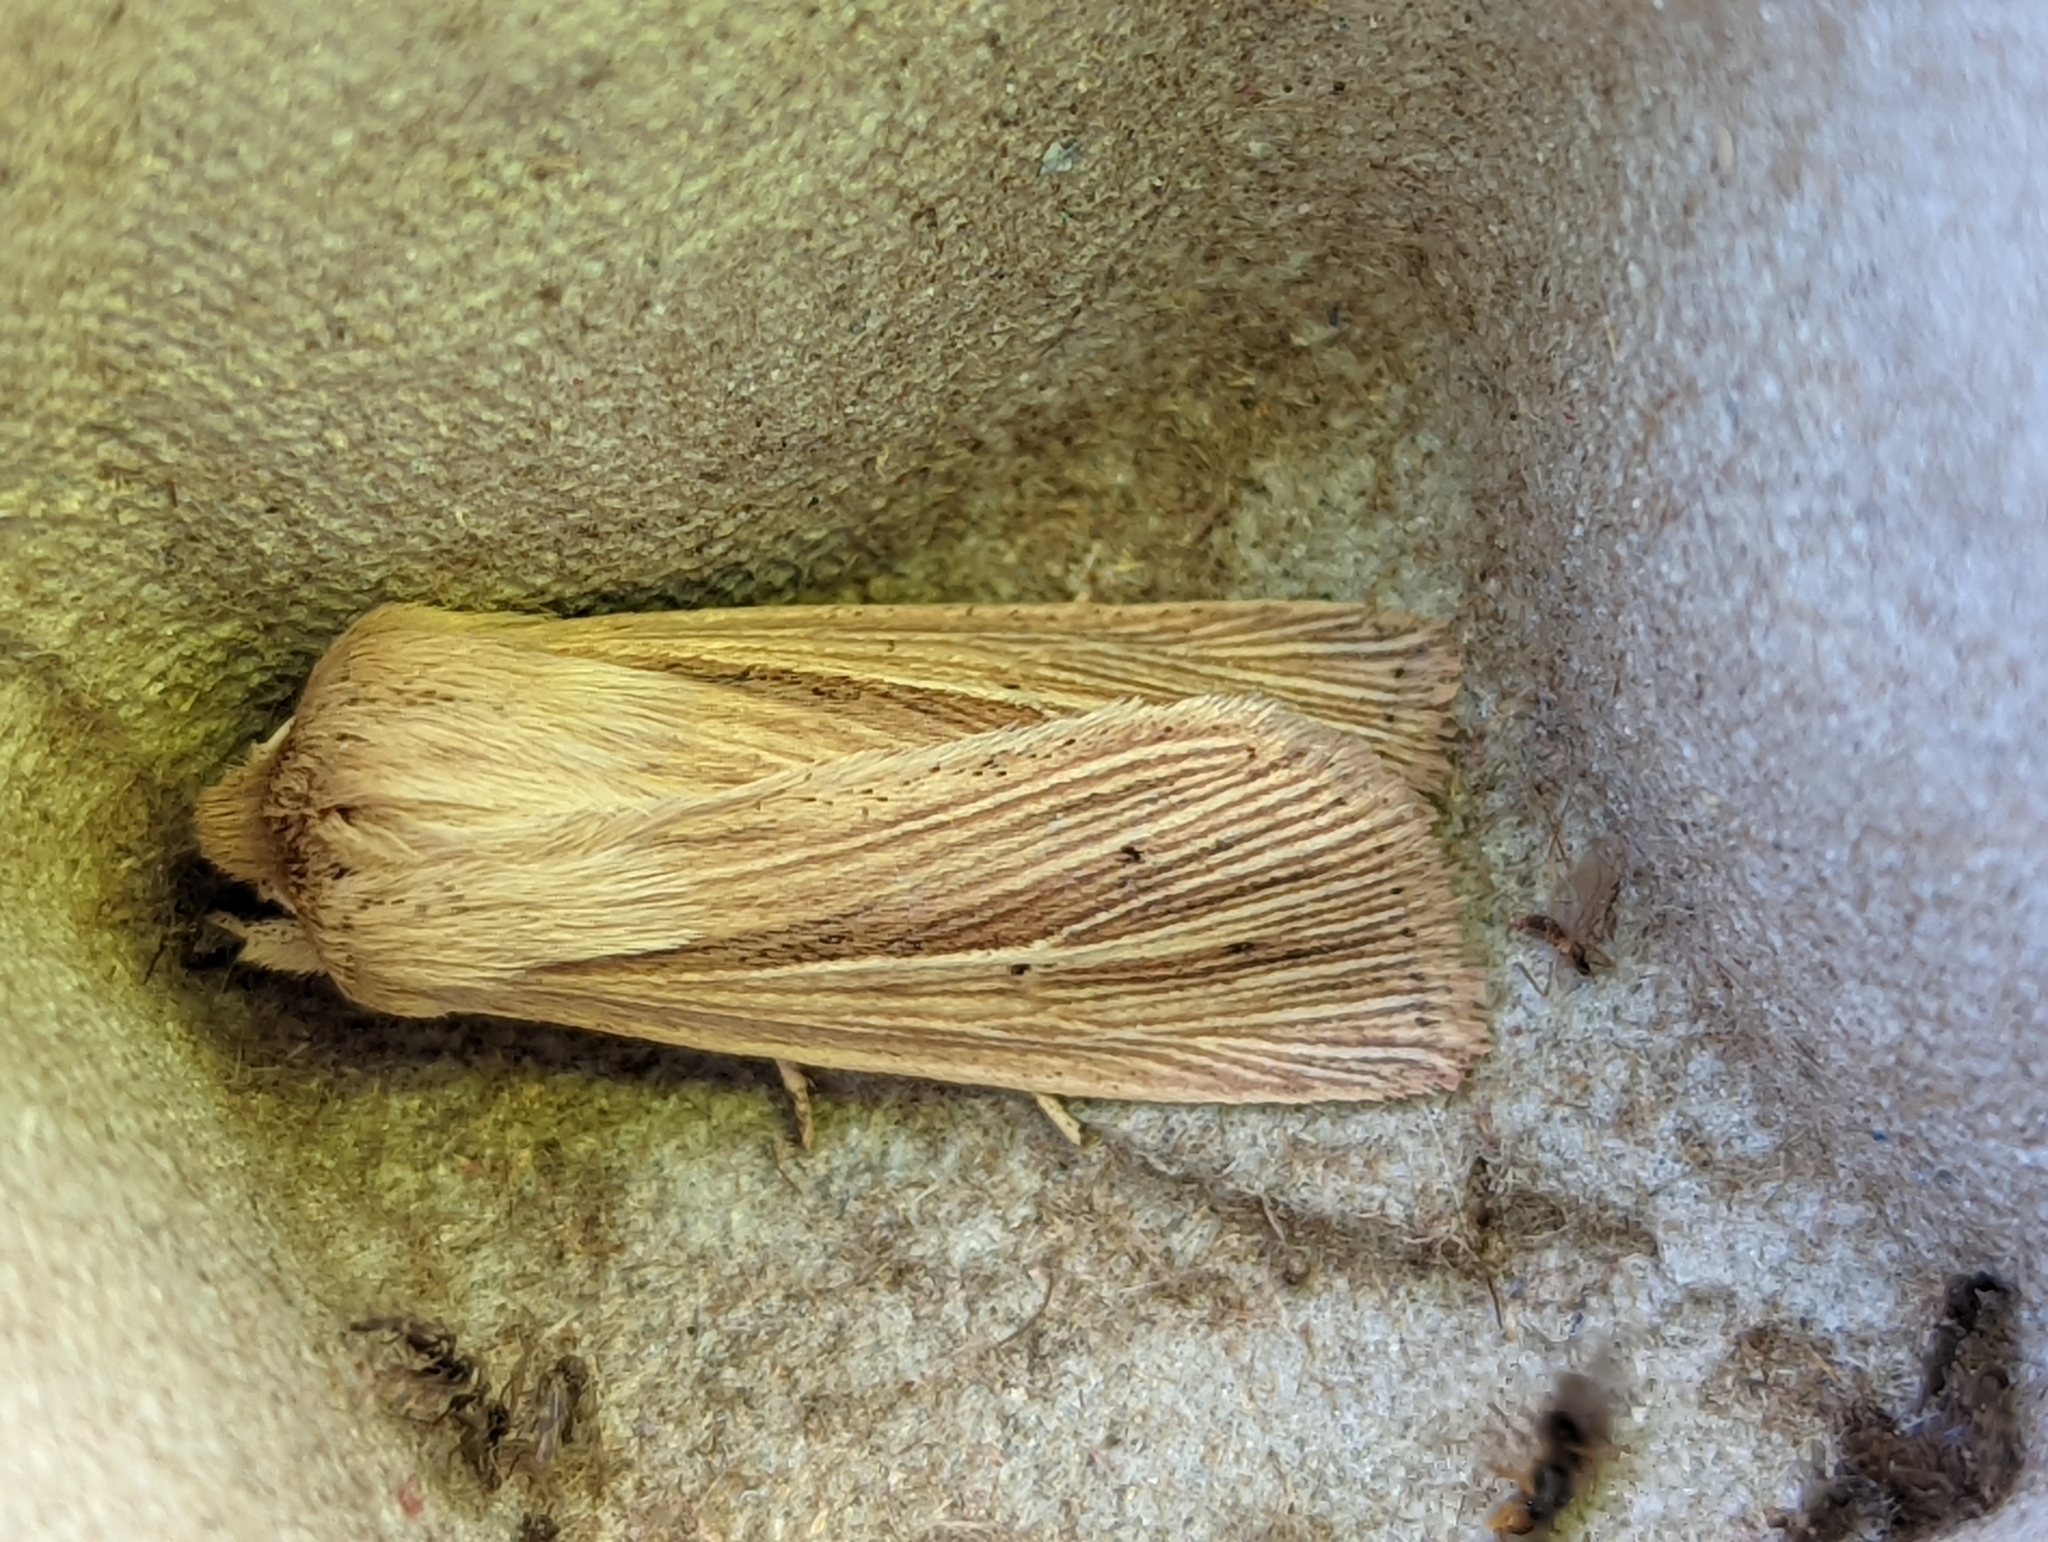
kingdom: Animalia
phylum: Arthropoda
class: Insecta
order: Lepidoptera
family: Noctuidae
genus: Mythimna
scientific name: Mythimna impura
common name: Smoky wainscot
